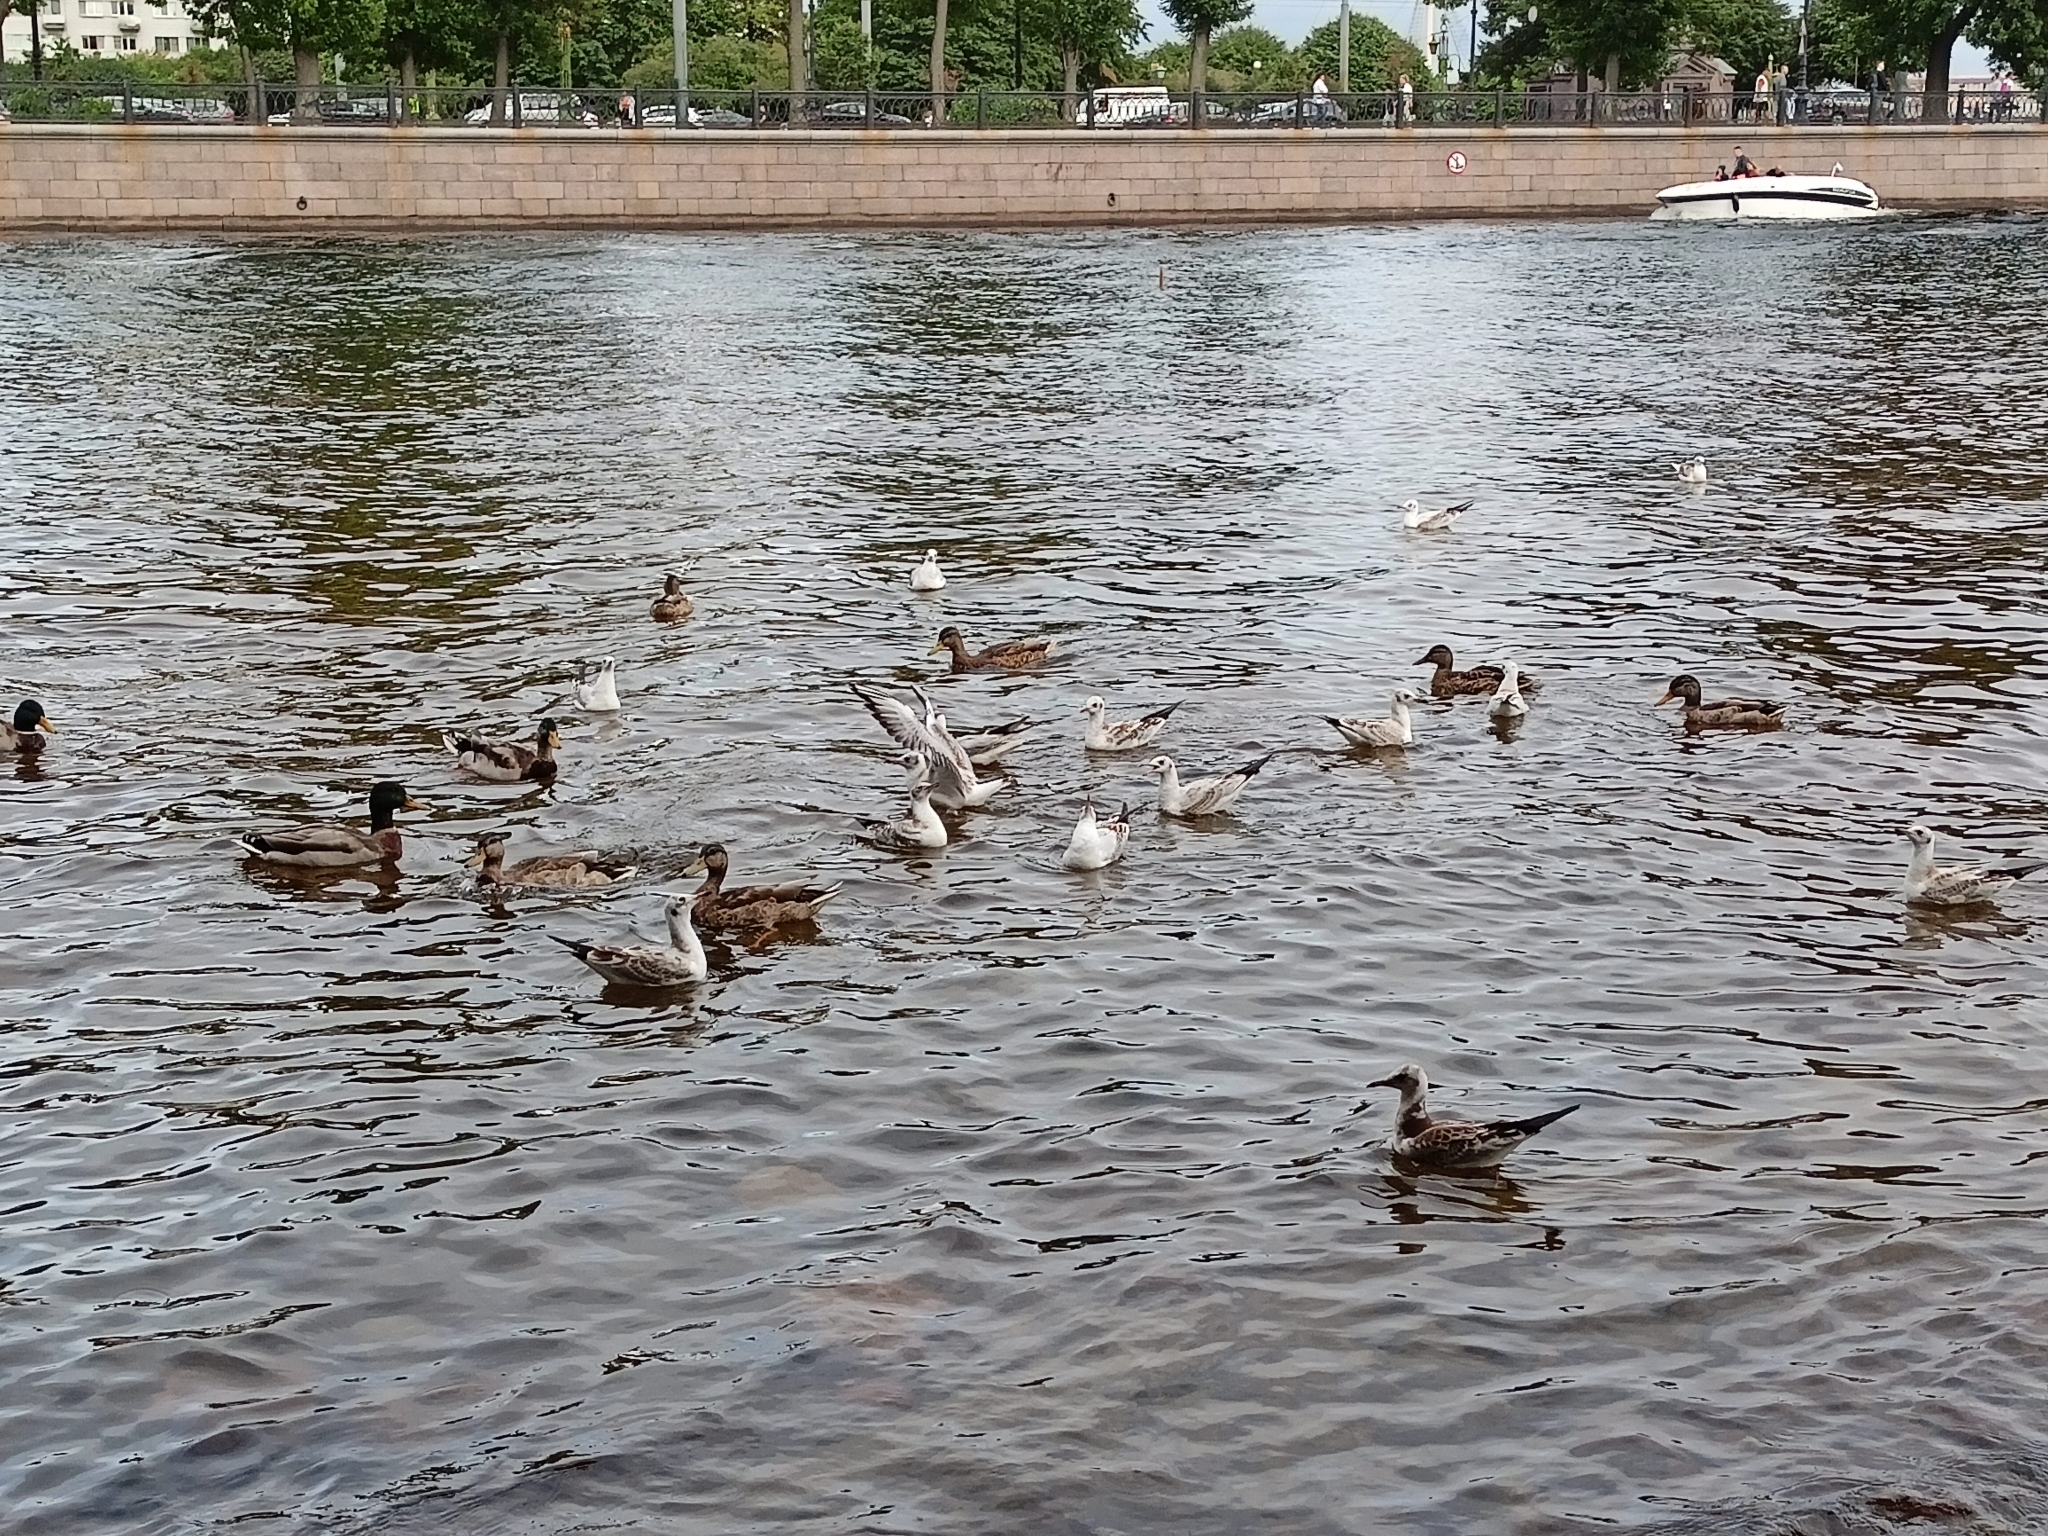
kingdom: Animalia
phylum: Chordata
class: Aves
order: Charadriiformes
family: Laridae
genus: Chroicocephalus
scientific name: Chroicocephalus ridibundus
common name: Black-headed gull
